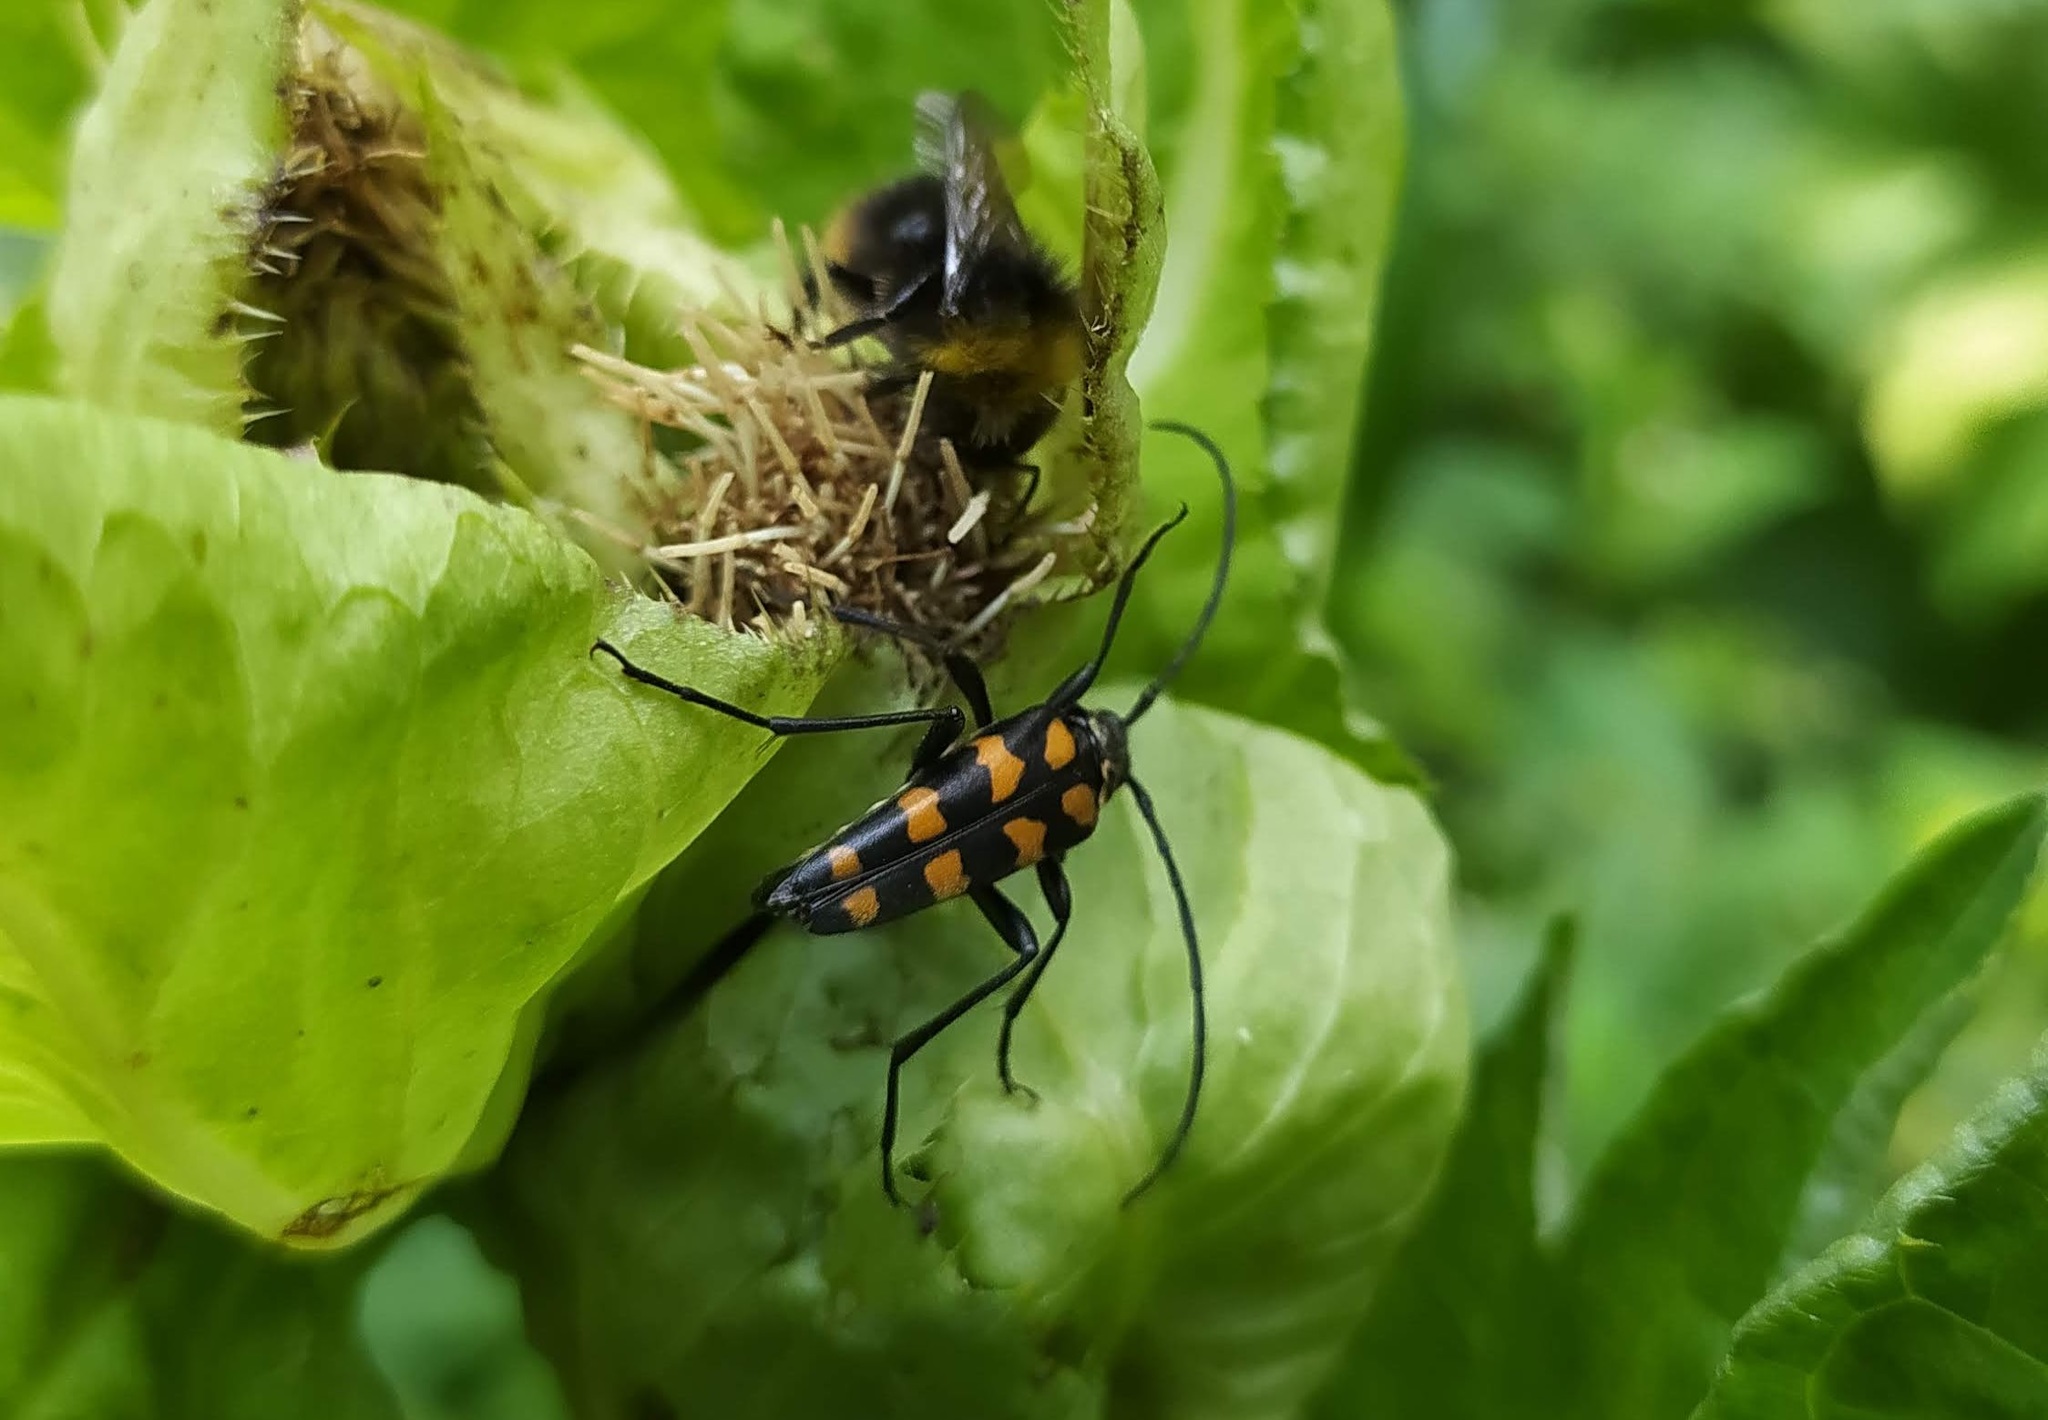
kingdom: Animalia
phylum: Arthropoda
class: Insecta
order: Coleoptera
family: Cerambycidae
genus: Leptura
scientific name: Leptura quadrifasciata
